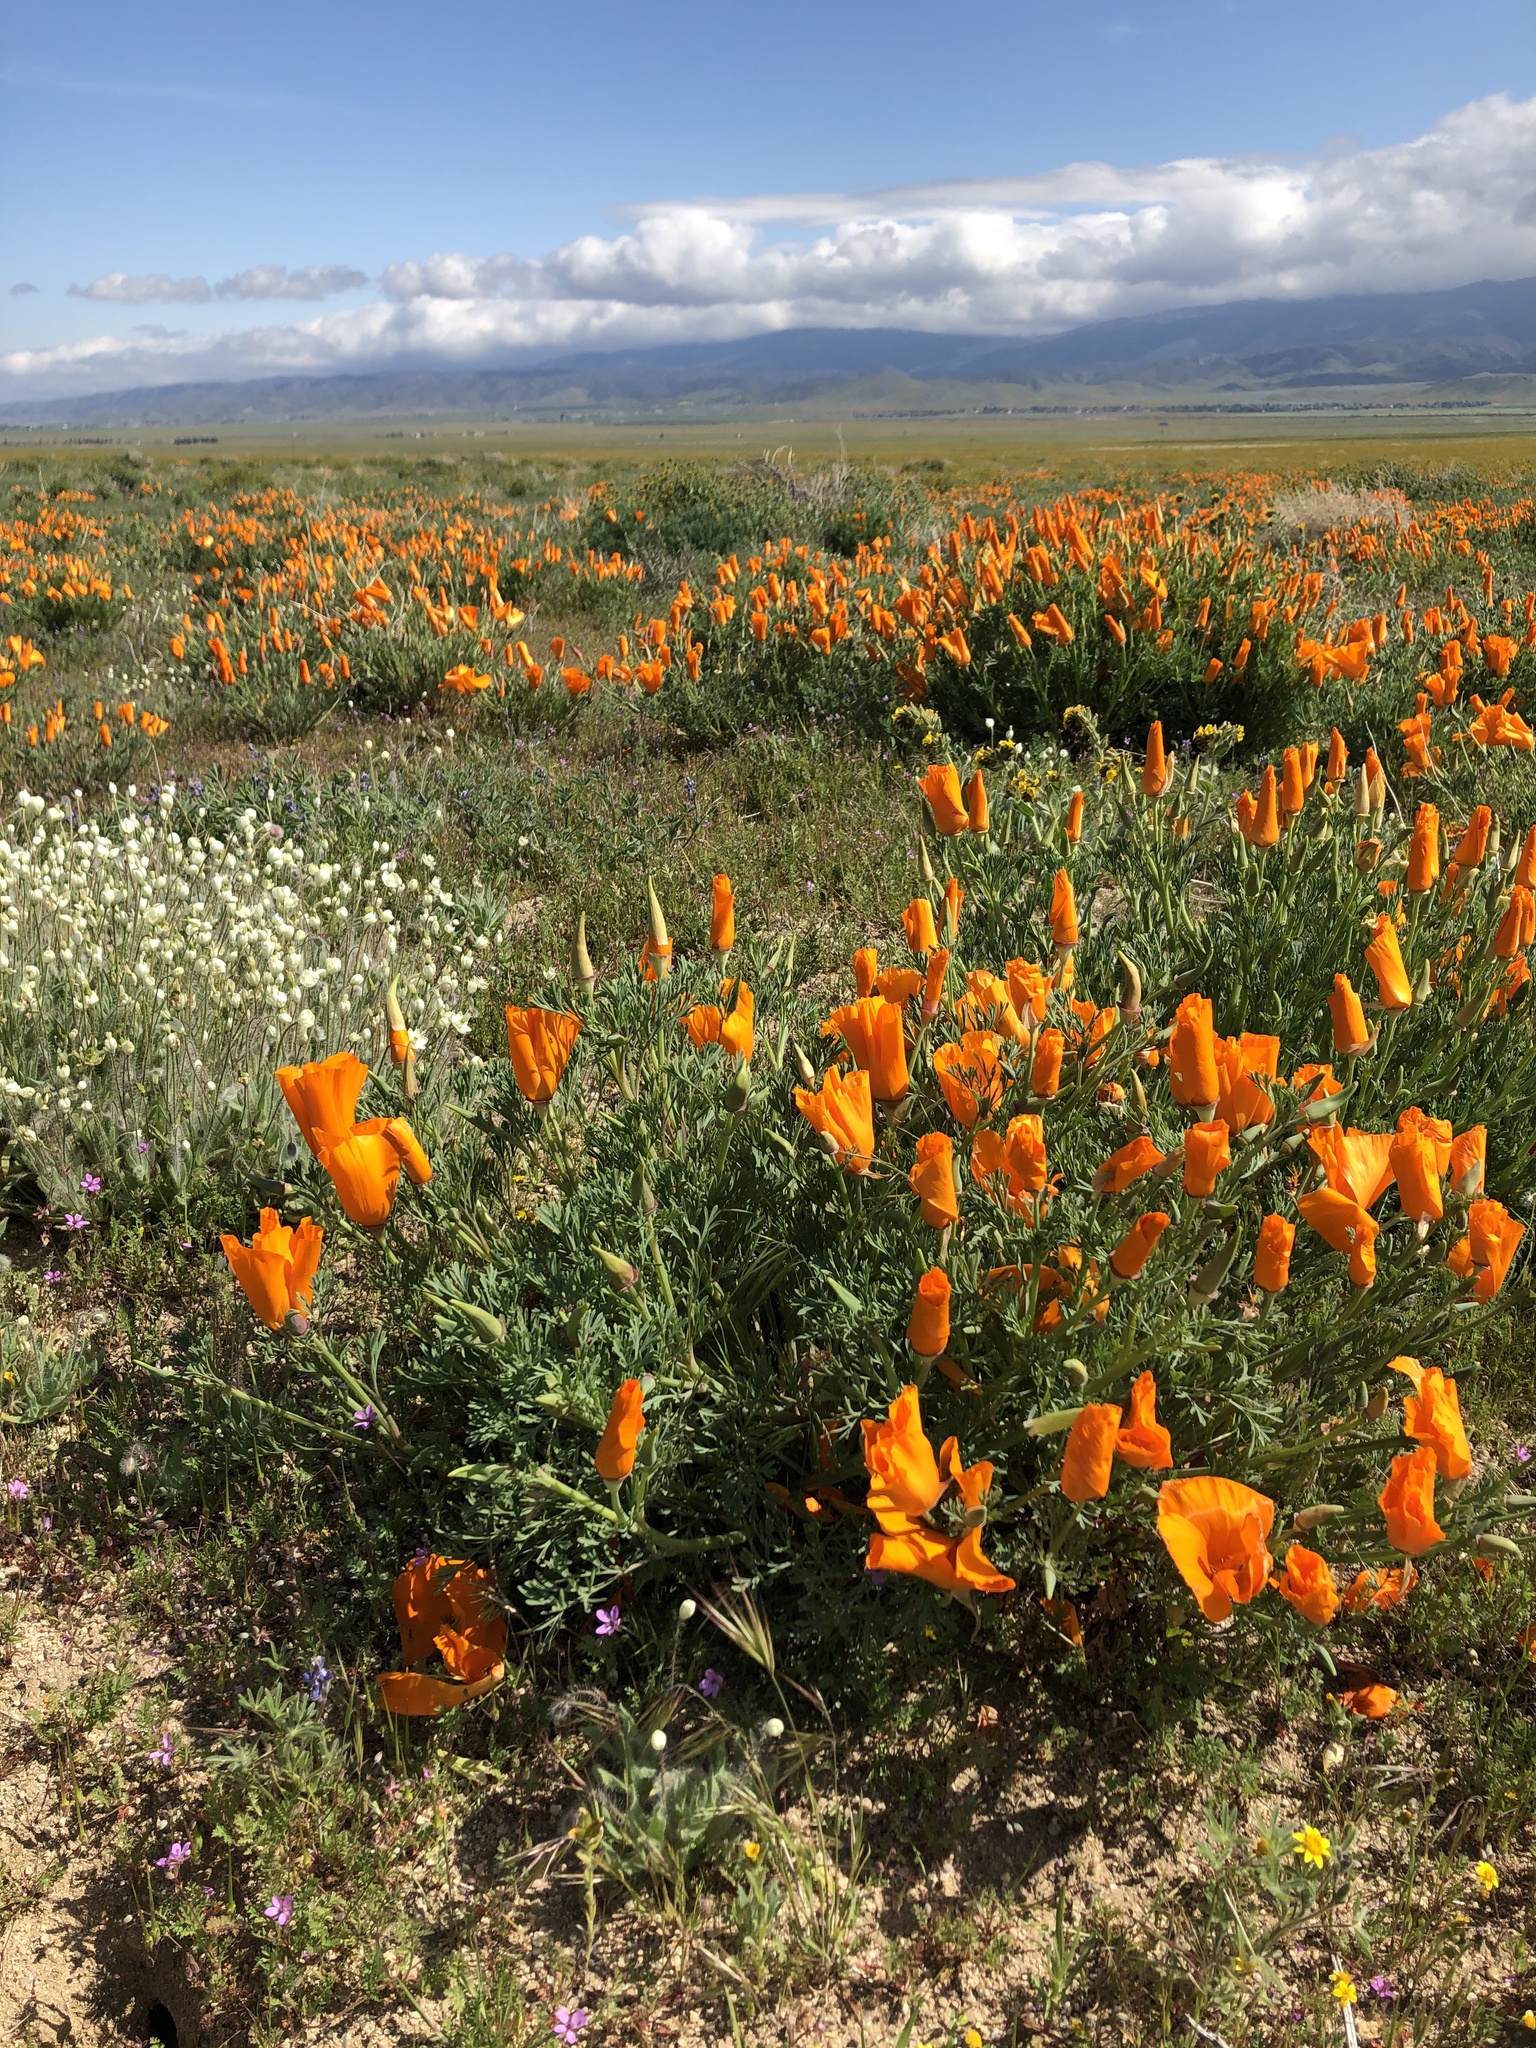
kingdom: Plantae
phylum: Tracheophyta
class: Magnoliopsida
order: Ranunculales
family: Papaveraceae
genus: Eschscholzia
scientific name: Eschscholzia californica
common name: California poppy
